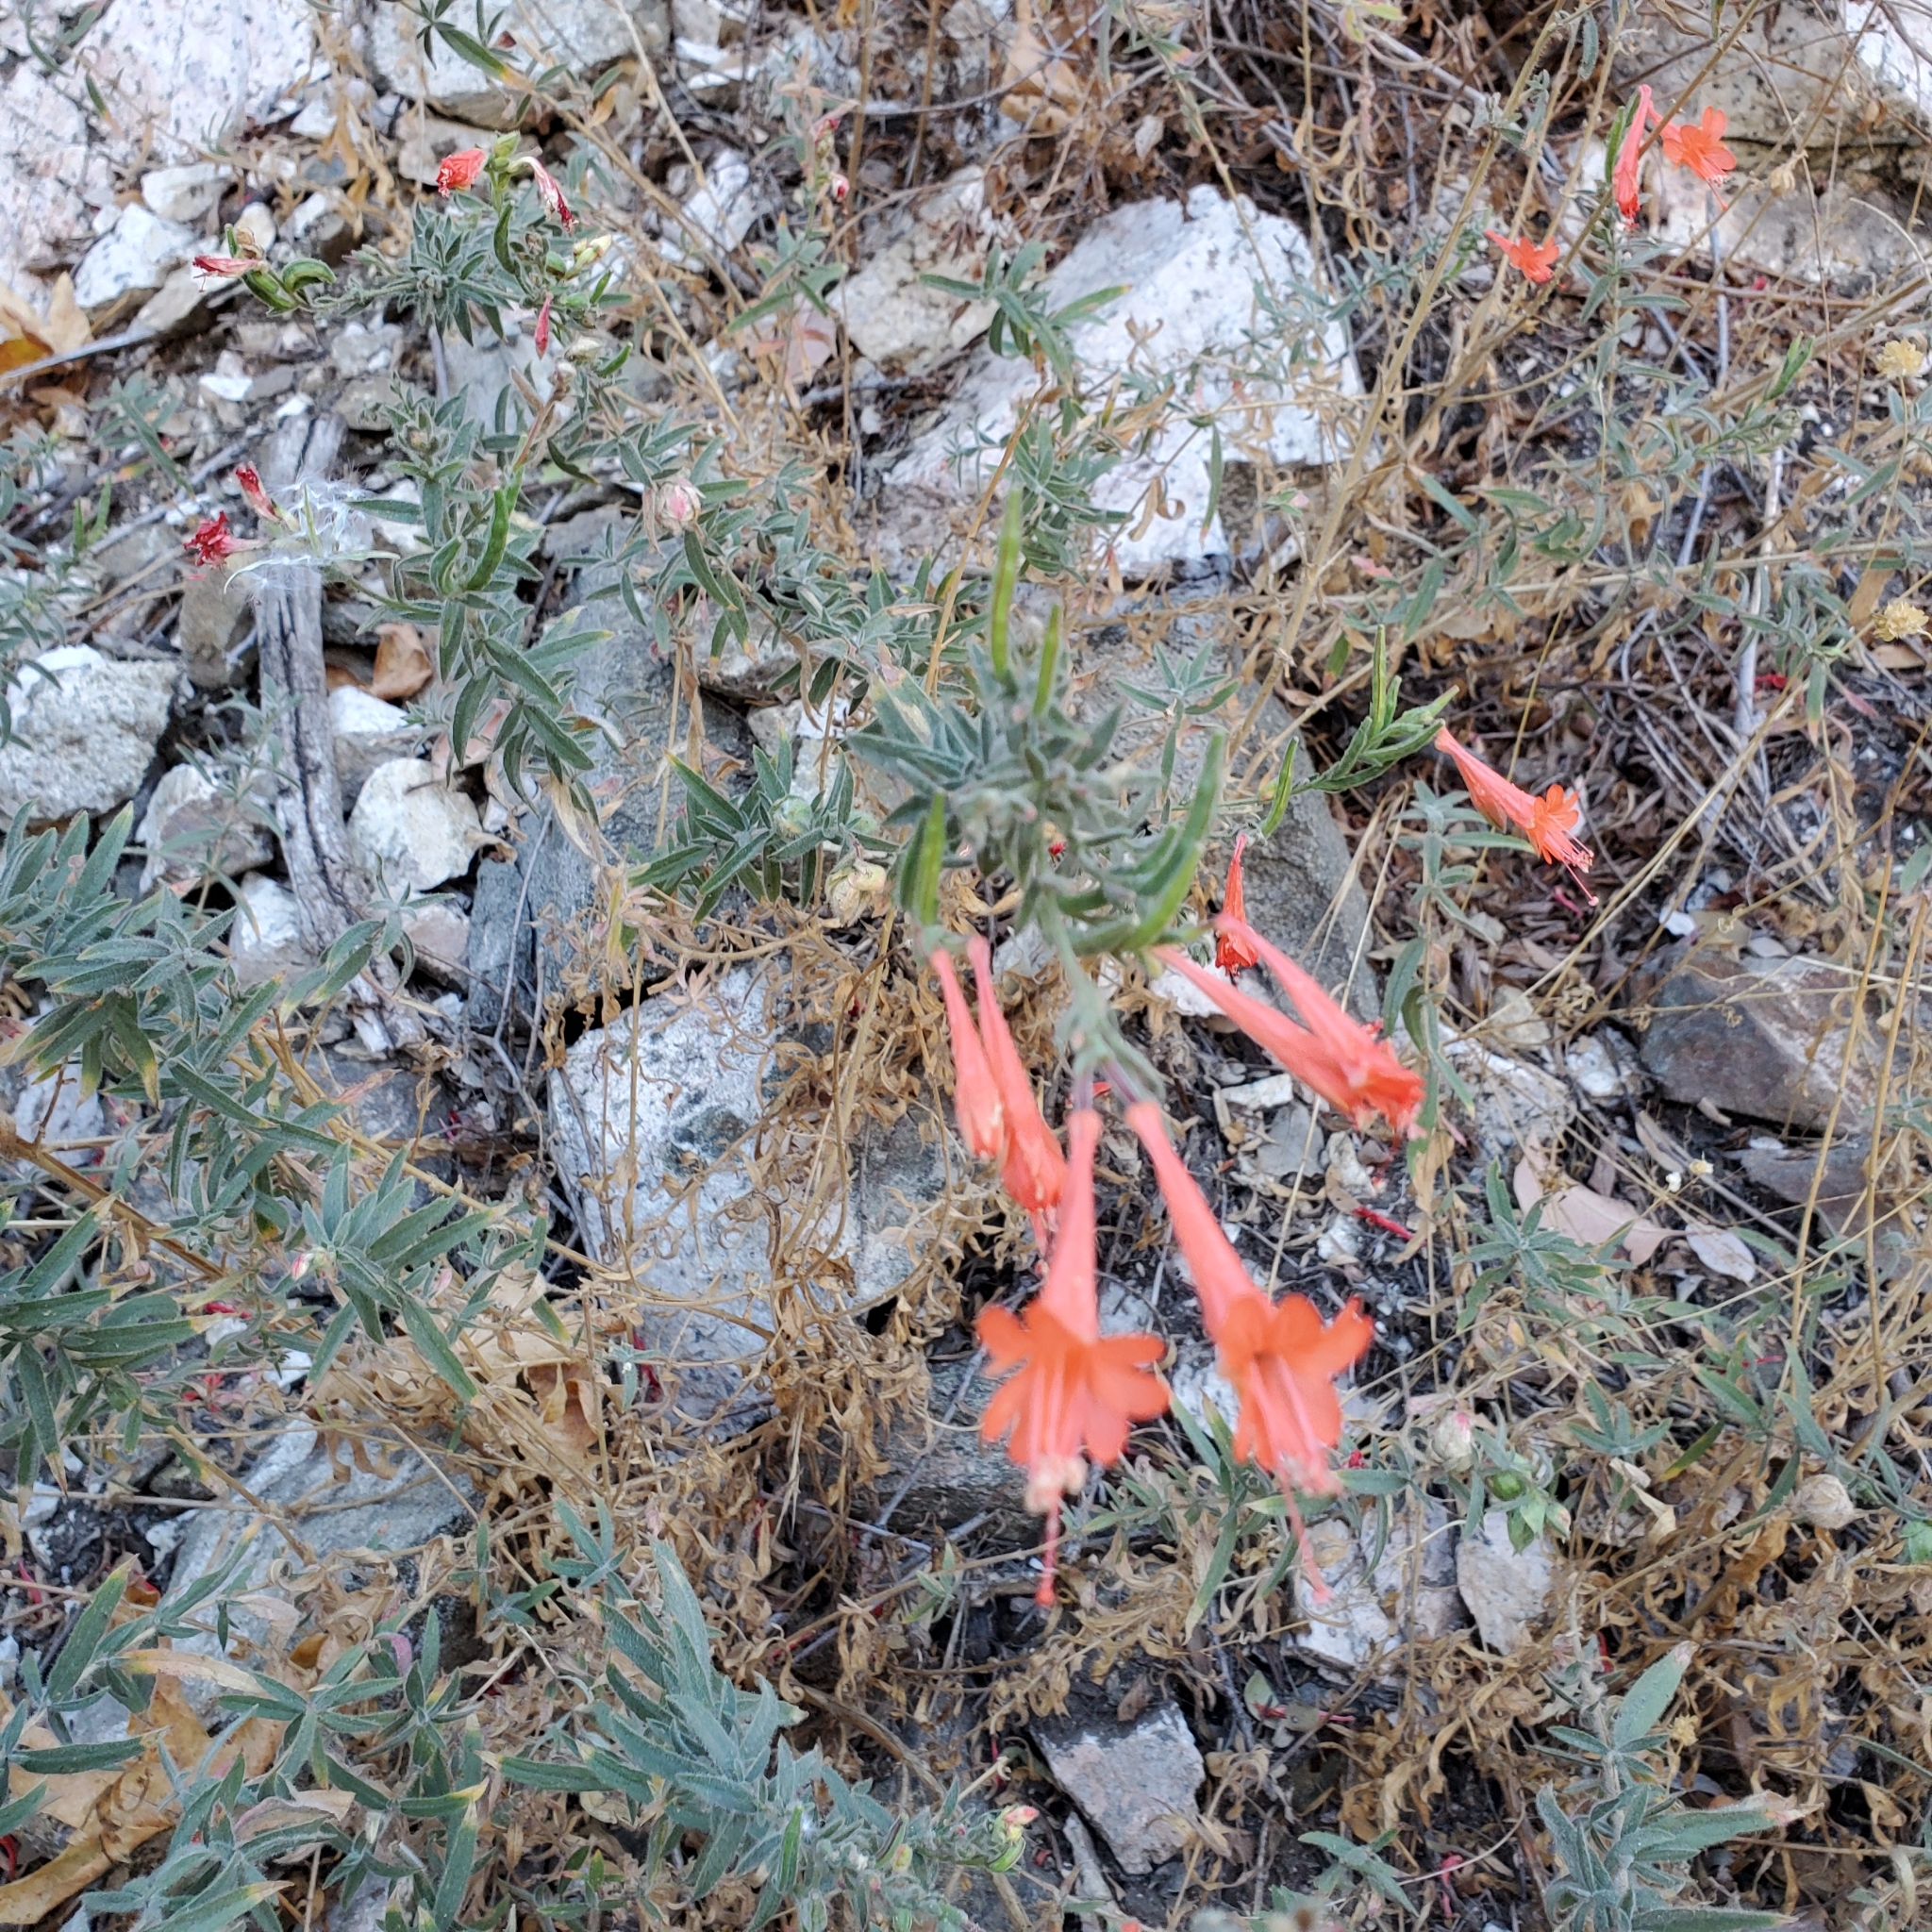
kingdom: Plantae
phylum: Tracheophyta
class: Magnoliopsida
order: Myrtales
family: Onagraceae
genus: Epilobium
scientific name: Epilobium canum
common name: California-fuchsia
